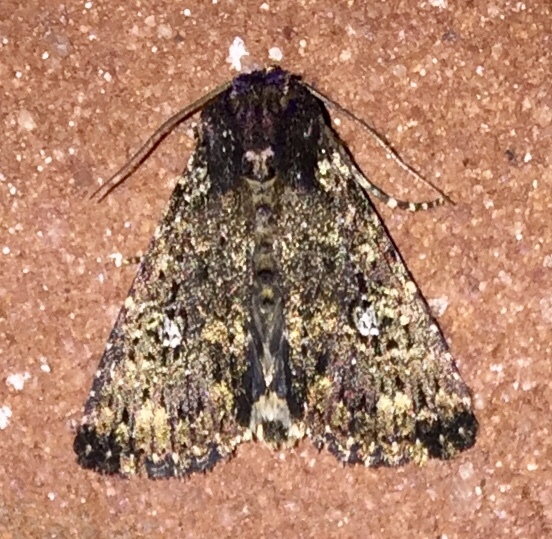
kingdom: Animalia
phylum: Arthropoda
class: Insecta
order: Lepidoptera
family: Noctuidae
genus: Condica
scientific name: Condica vecors
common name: Dusky groundling
